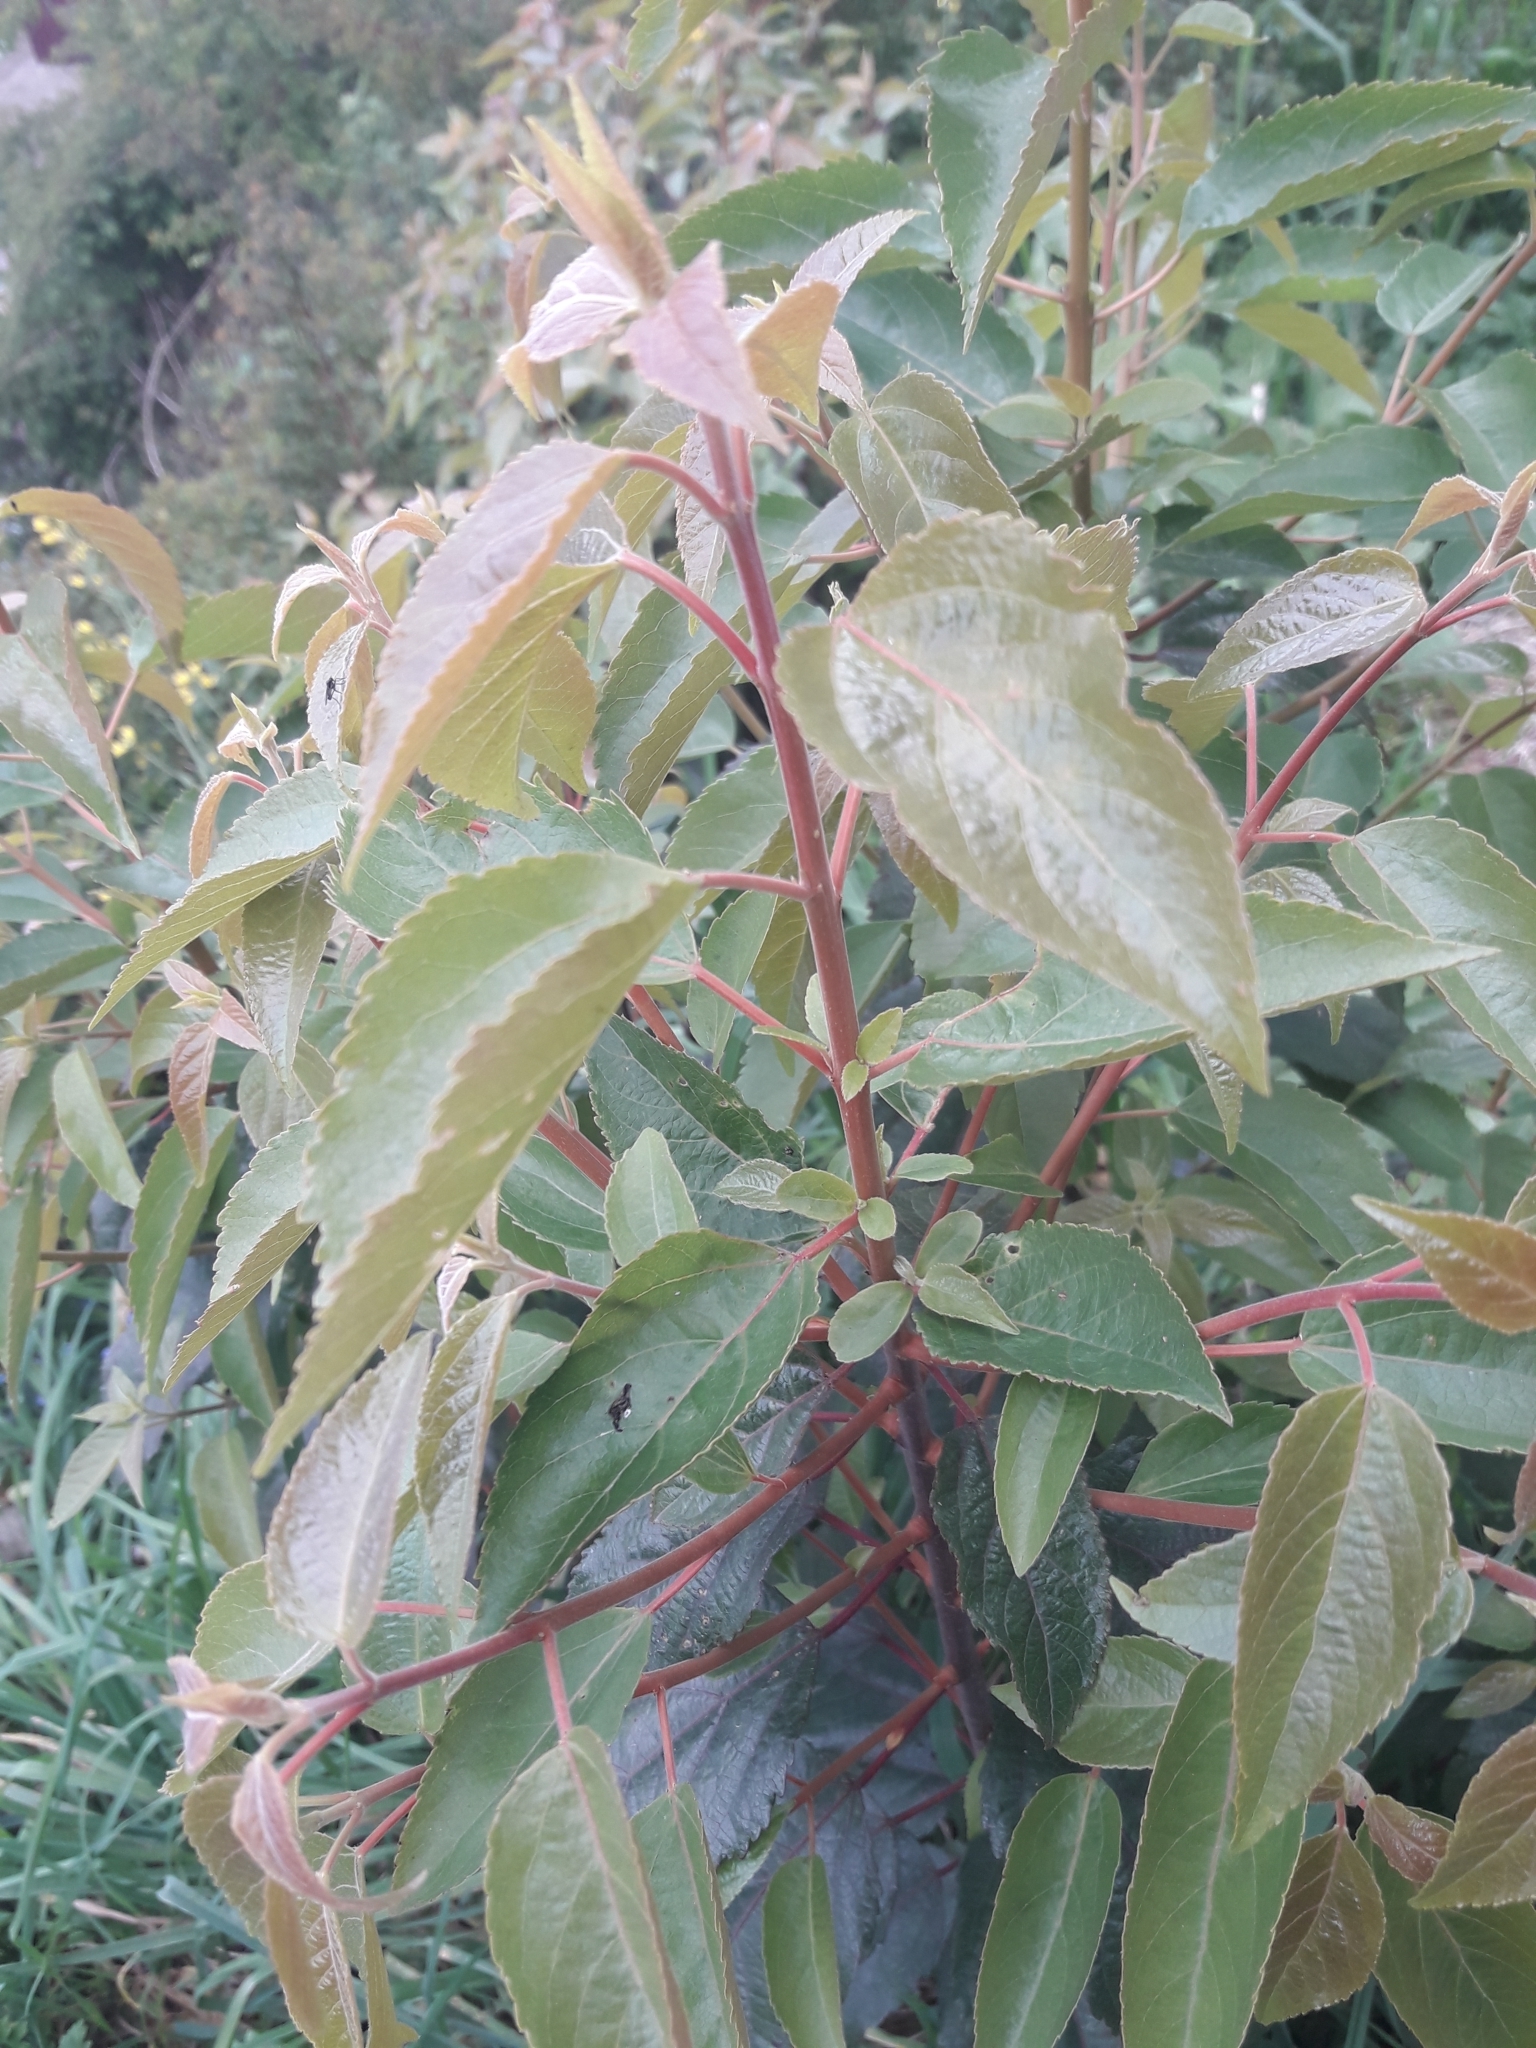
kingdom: Plantae
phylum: Tracheophyta
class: Magnoliopsida
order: Oxalidales
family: Elaeocarpaceae
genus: Aristotelia
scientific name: Aristotelia chilensis
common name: Maquei
